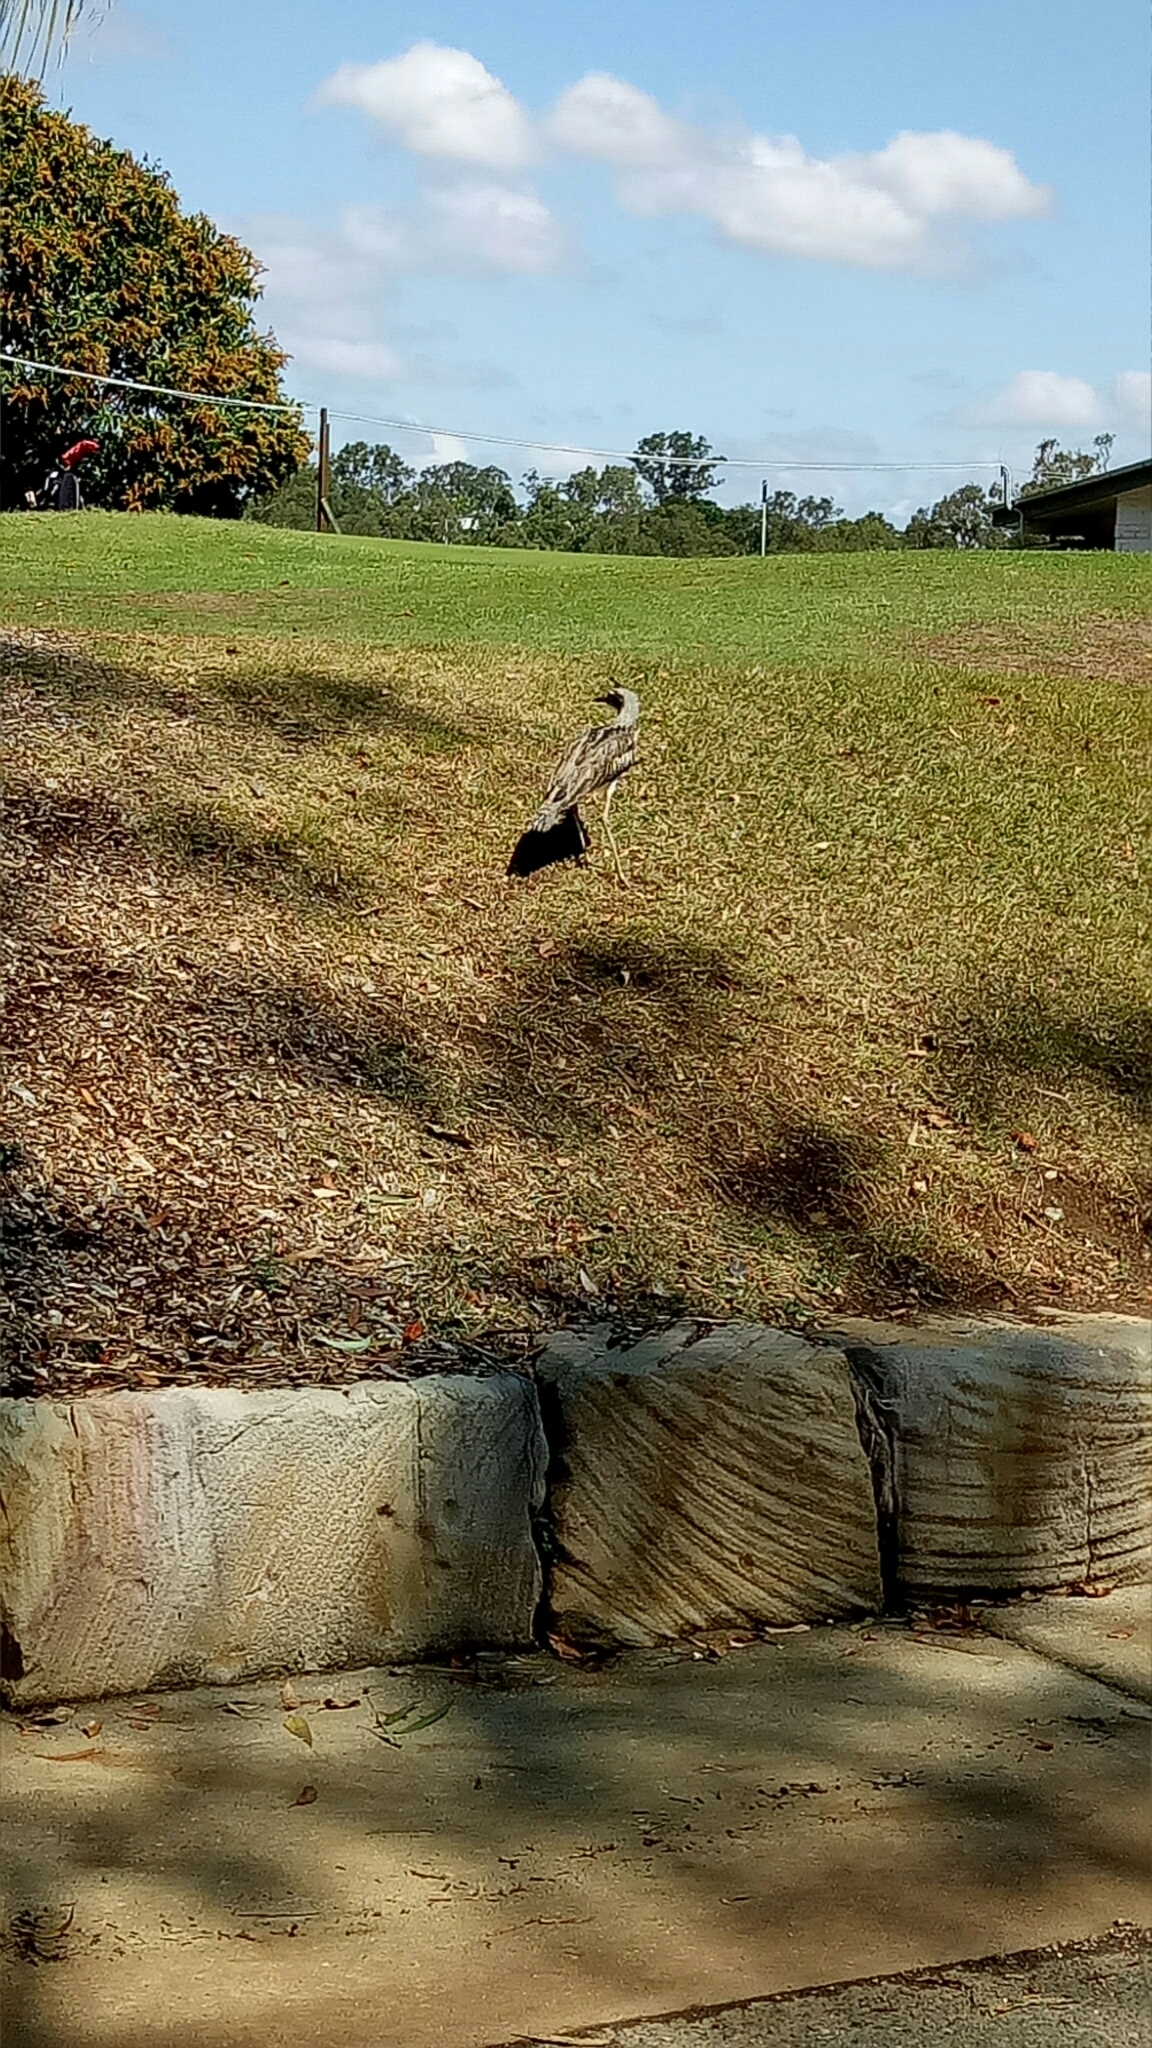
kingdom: Animalia
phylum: Chordata
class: Aves
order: Charadriiformes
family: Burhinidae
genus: Burhinus
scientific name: Burhinus grallarius
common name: Bush stone-curlew
